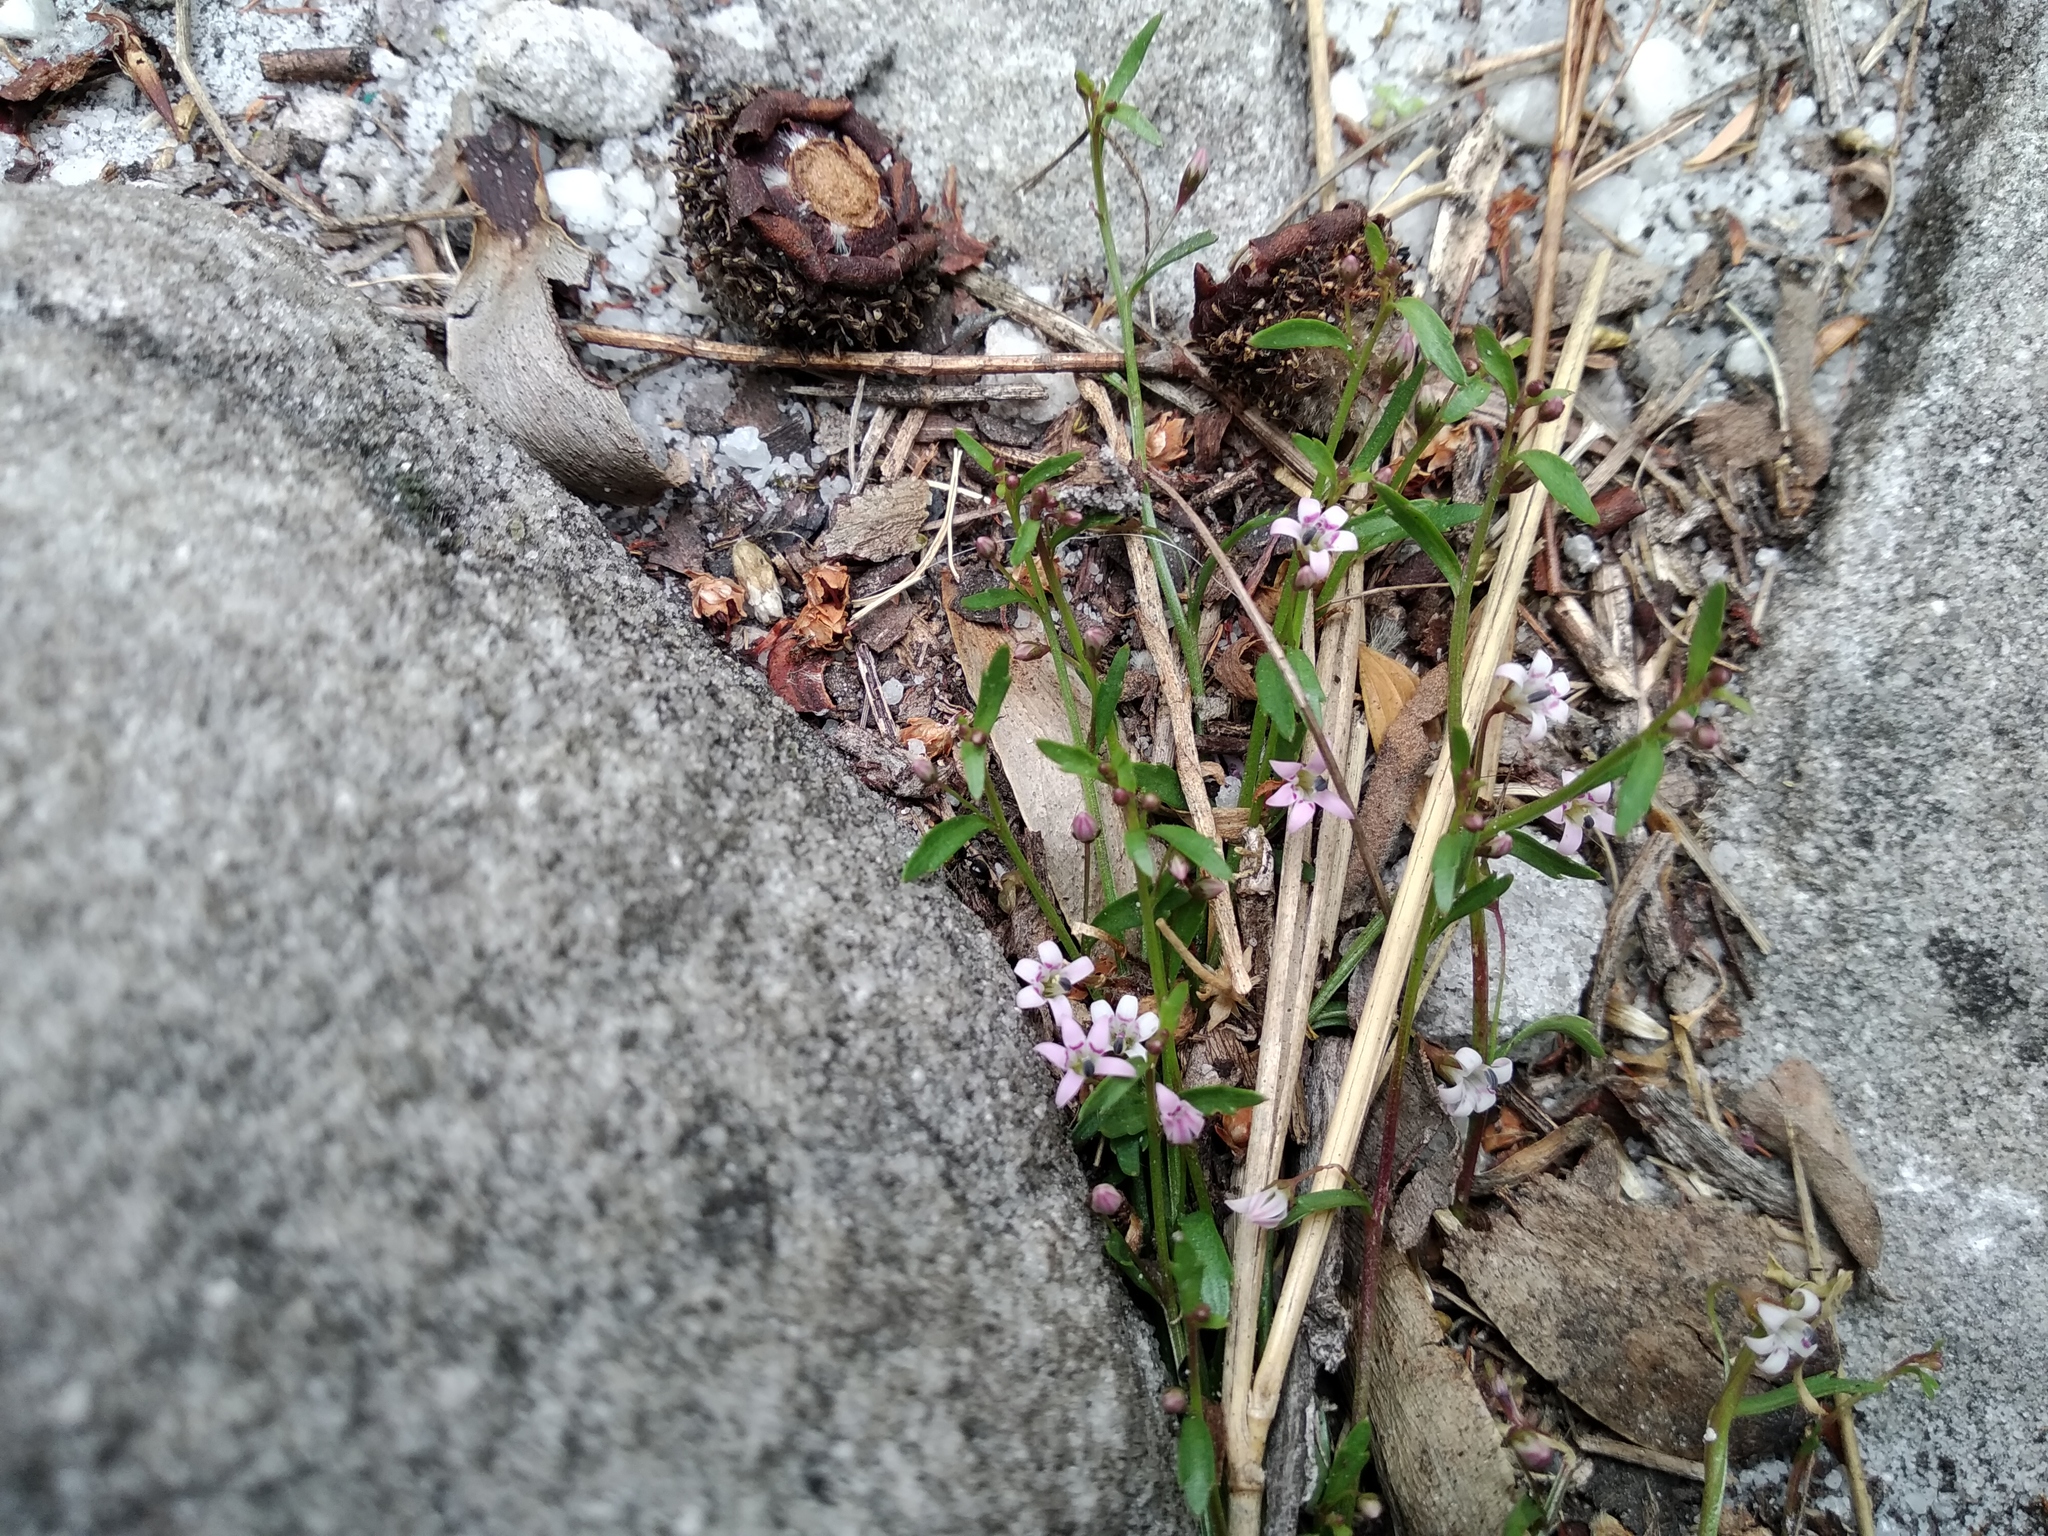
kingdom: Plantae
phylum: Tracheophyta
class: Magnoliopsida
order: Asterales
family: Campanulaceae
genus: Lobelia
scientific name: Lobelia eckloniana
